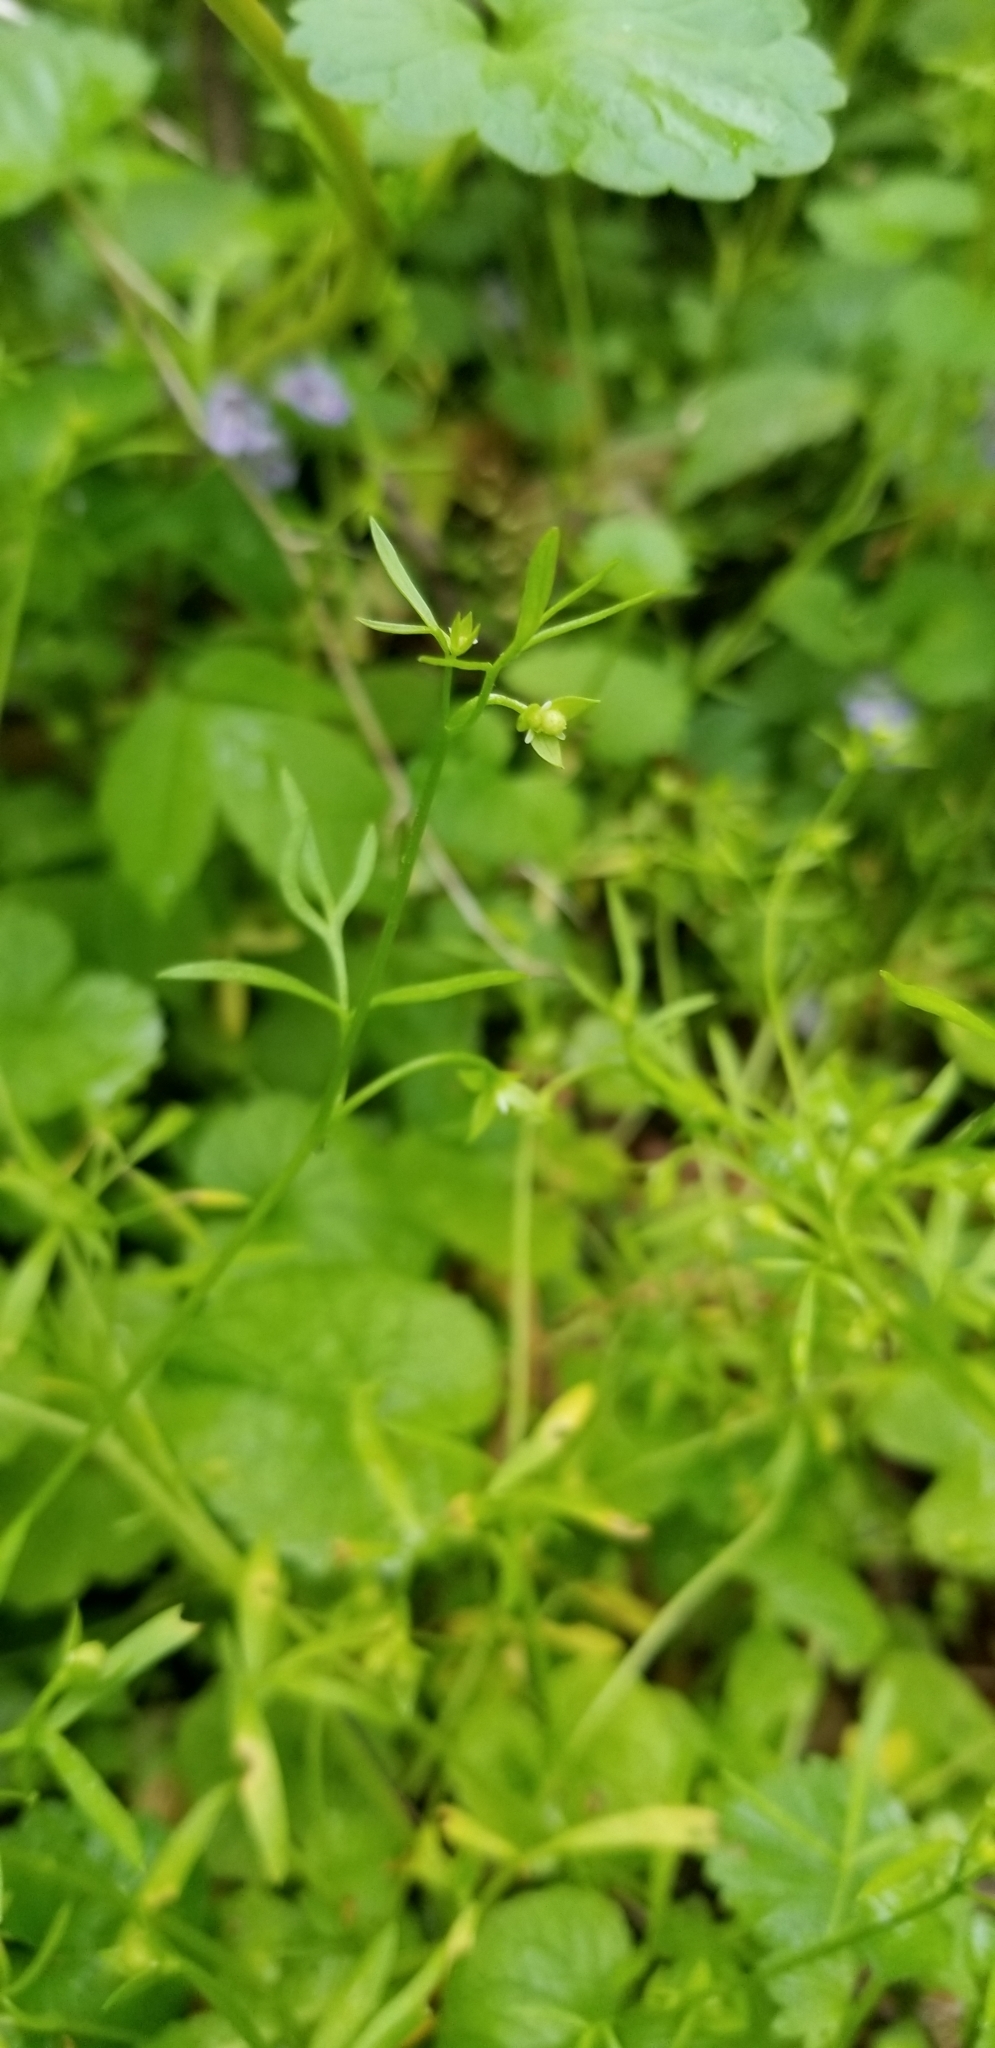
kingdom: Plantae
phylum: Tracheophyta
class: Magnoliopsida
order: Brassicales
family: Limnanthaceae
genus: Floerkea
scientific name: Floerkea proserpinacoides
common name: False mermaid
